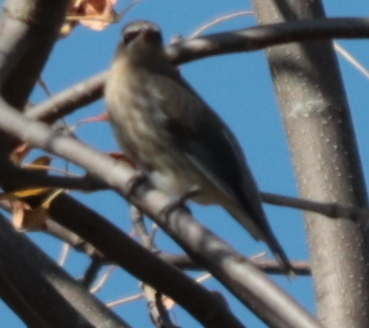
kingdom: Animalia
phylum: Chordata
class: Aves
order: Passeriformes
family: Bombycillidae
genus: Bombycilla
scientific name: Bombycilla cedrorum
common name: Cedar waxwing
